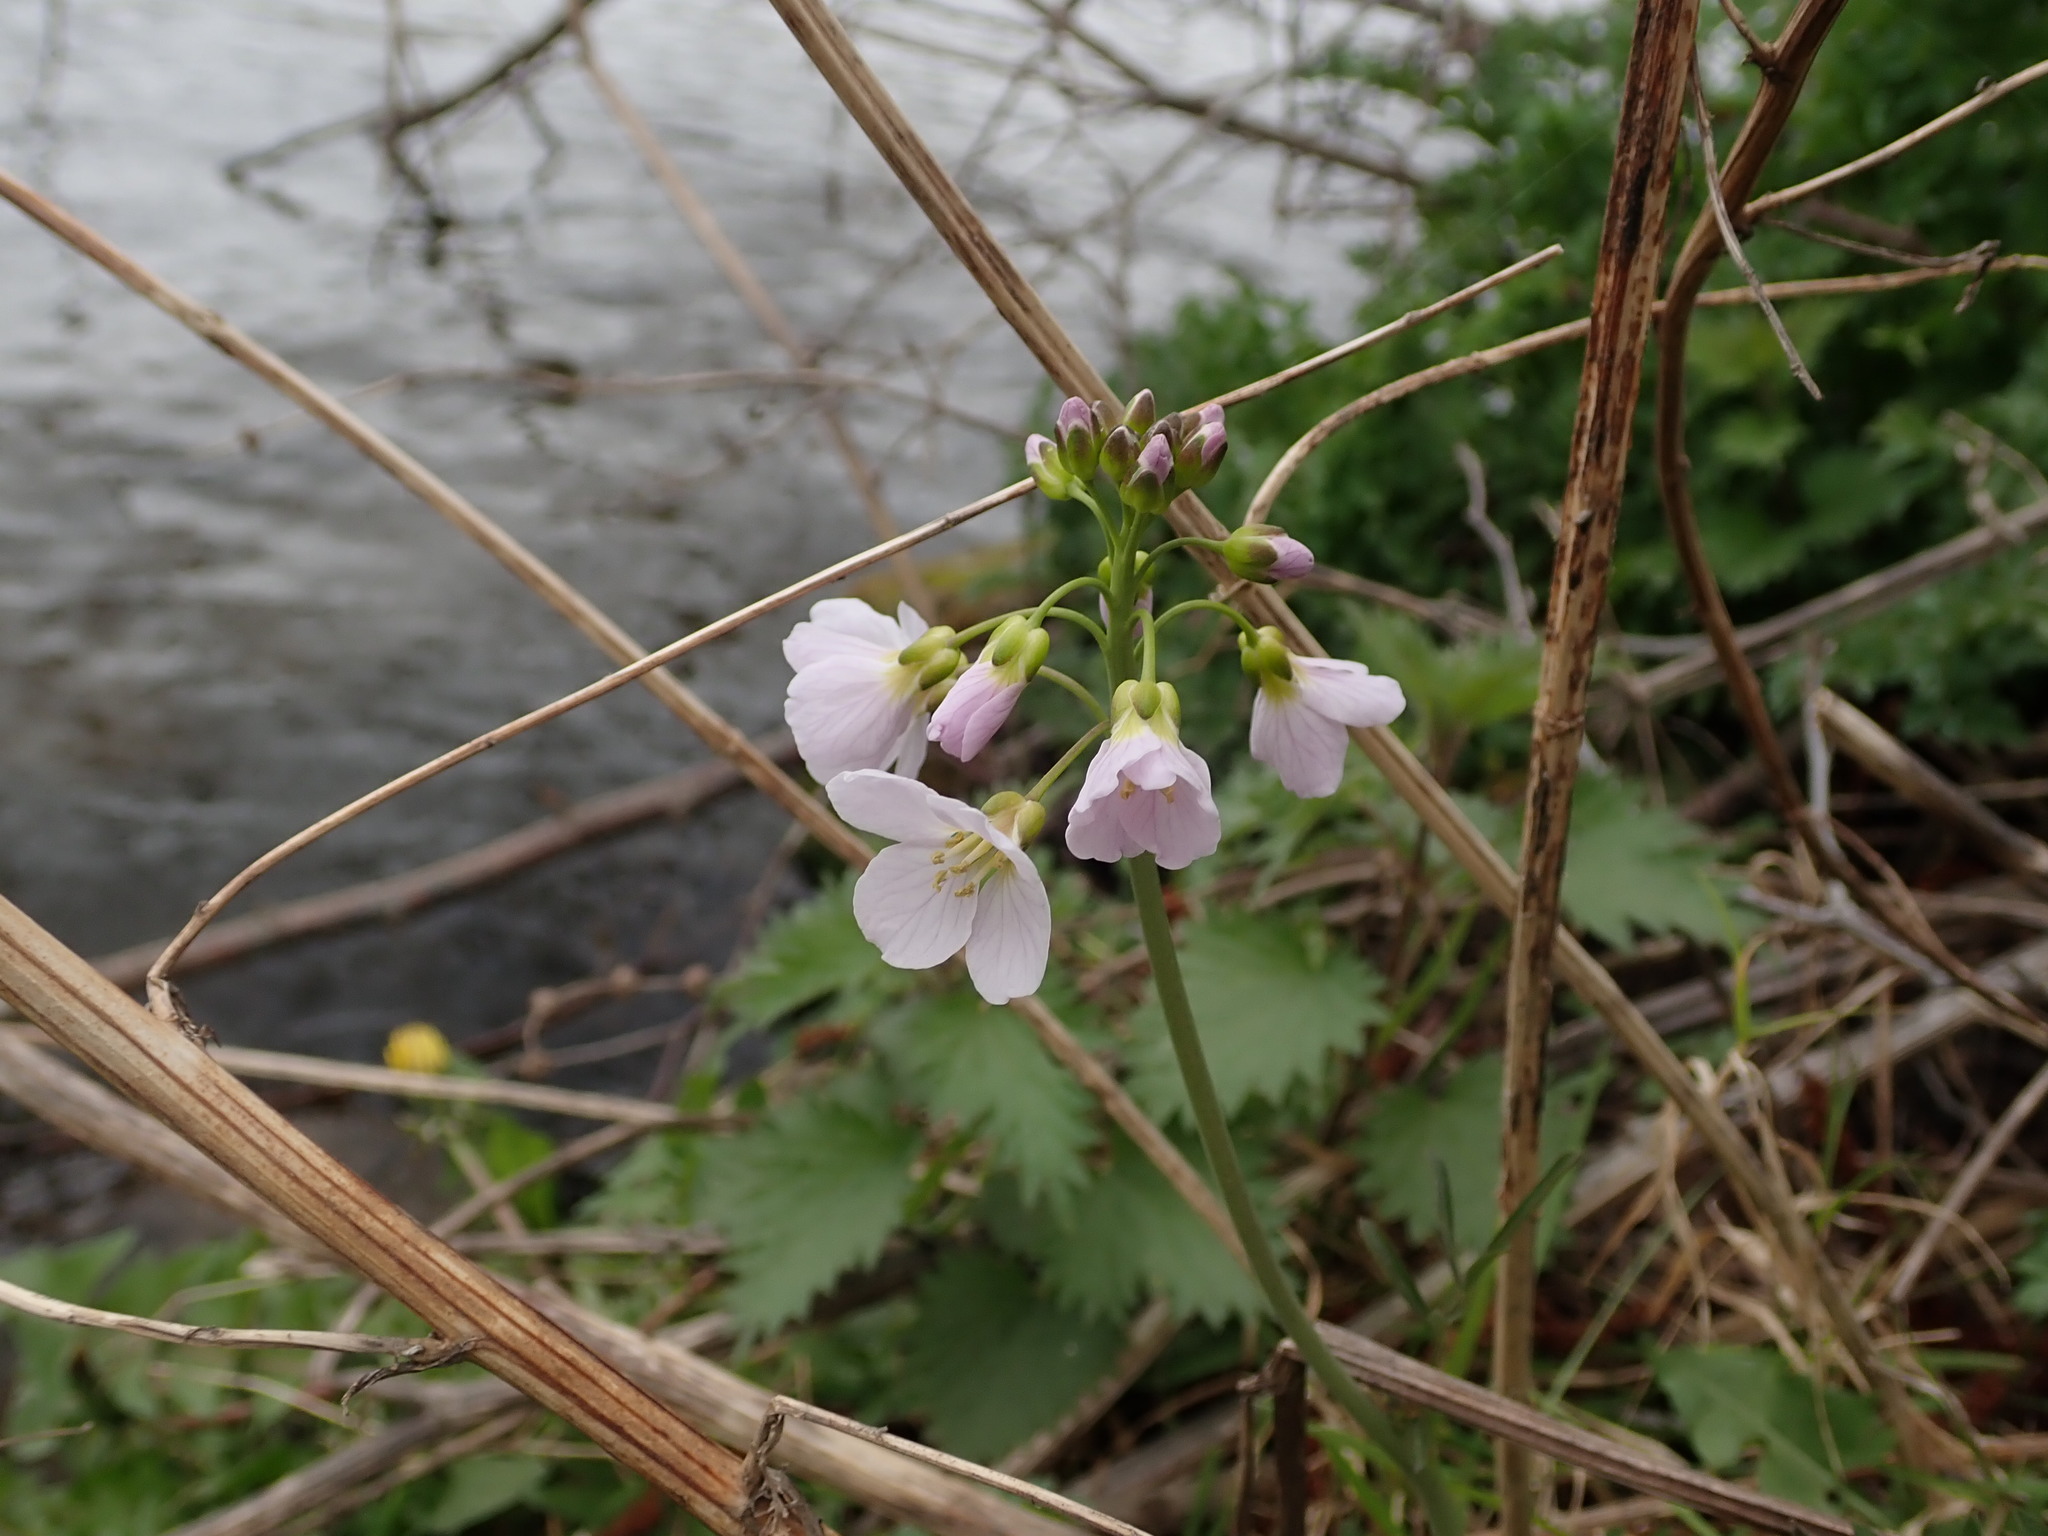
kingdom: Plantae
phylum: Tracheophyta
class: Magnoliopsida
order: Brassicales
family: Brassicaceae
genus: Cardamine
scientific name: Cardamine pratensis
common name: Cuckoo flower
